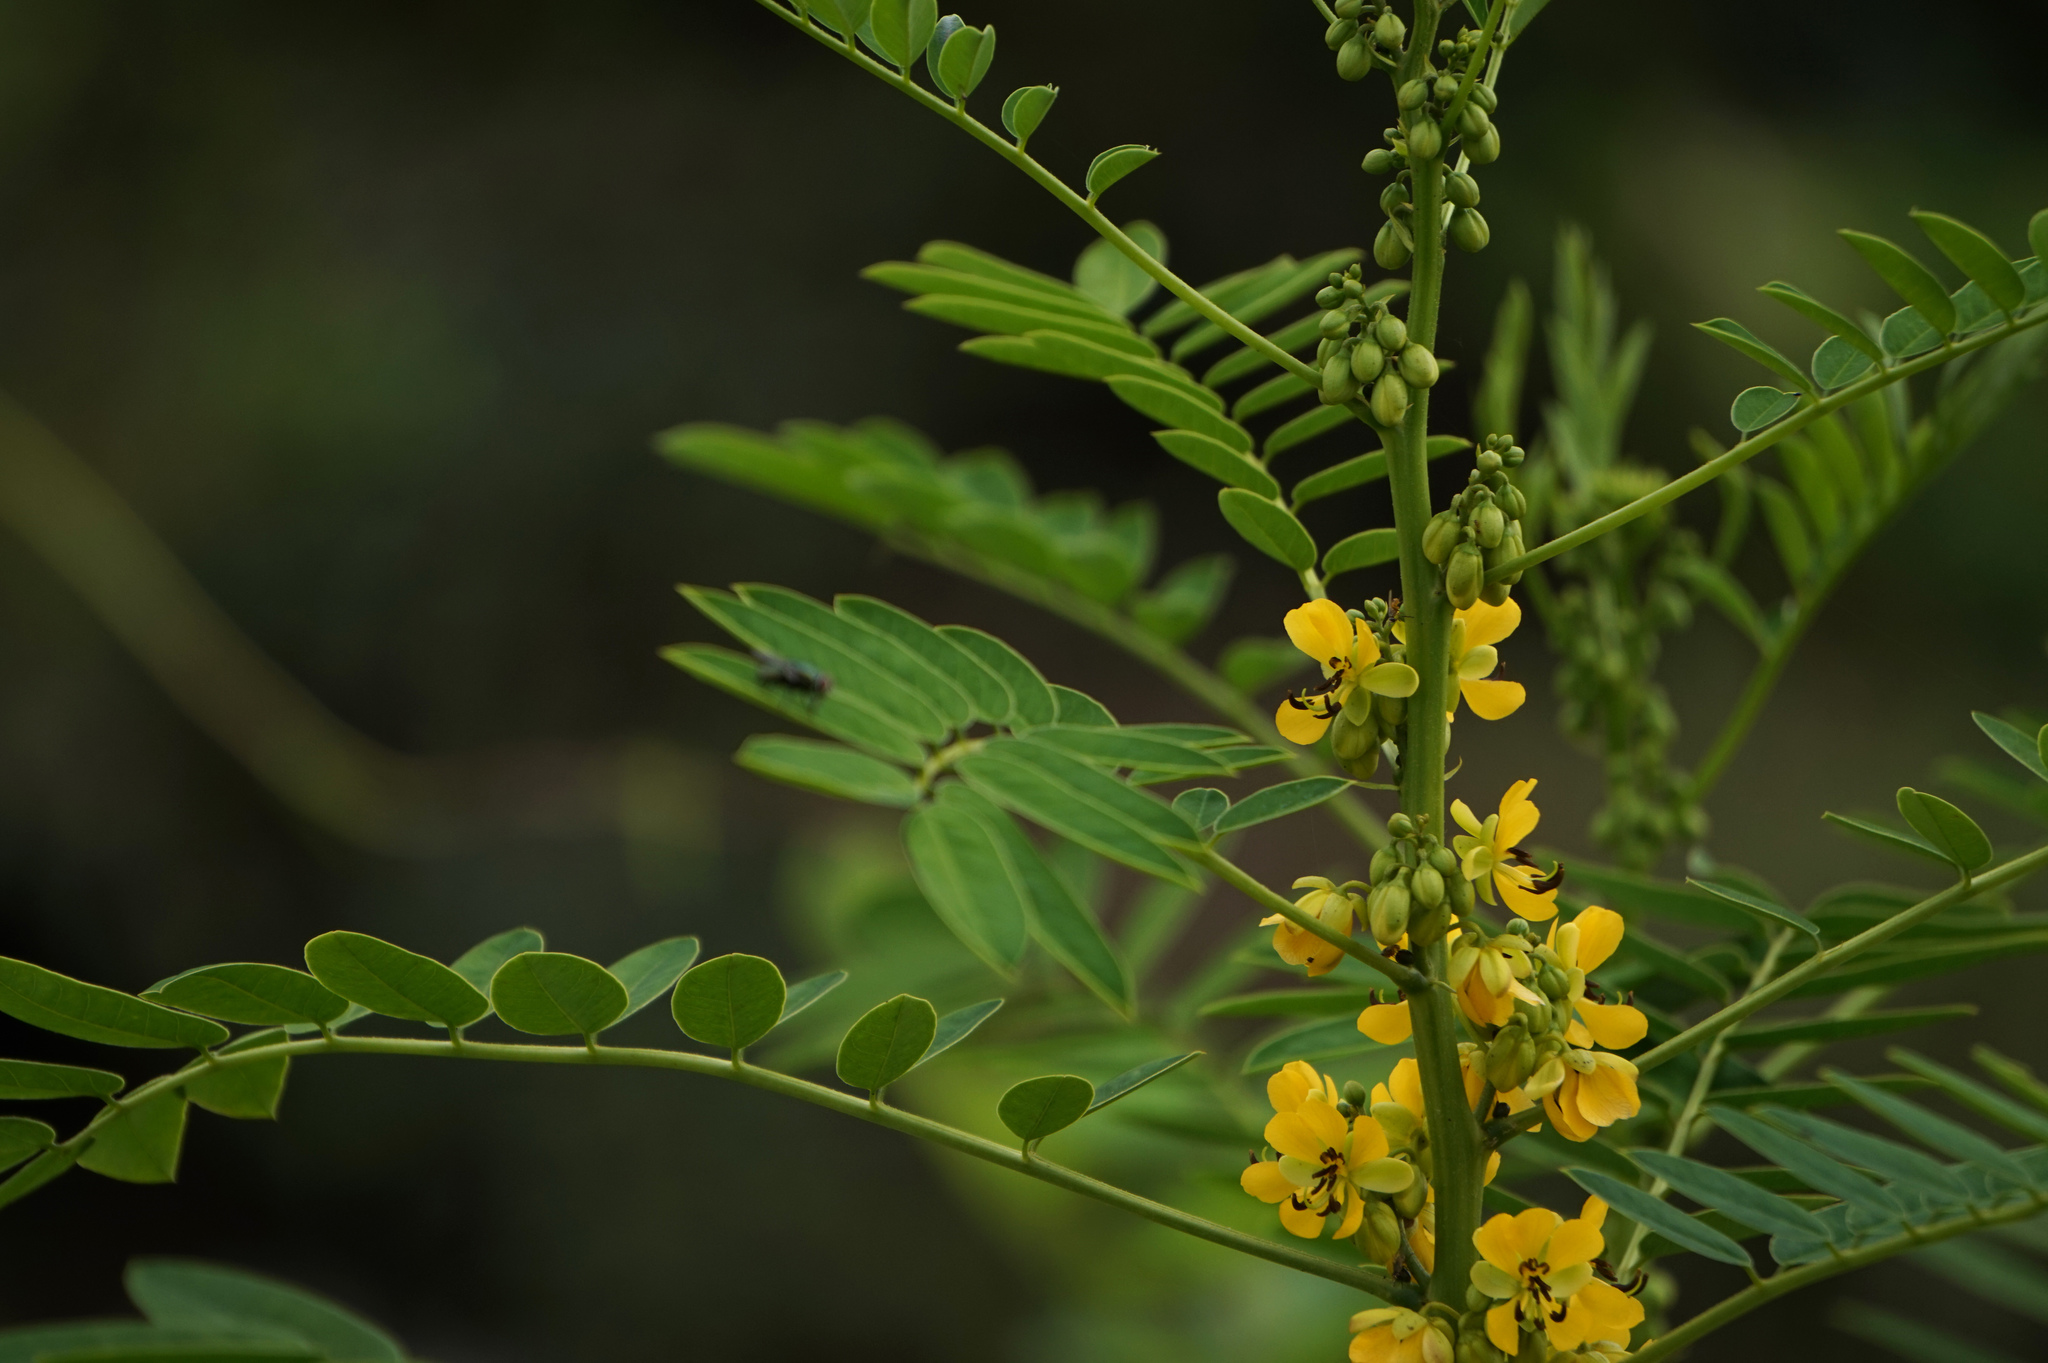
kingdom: Plantae
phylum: Tracheophyta
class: Magnoliopsida
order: Fabales
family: Fabaceae
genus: Senna
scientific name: Senna marilandica
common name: American senna
